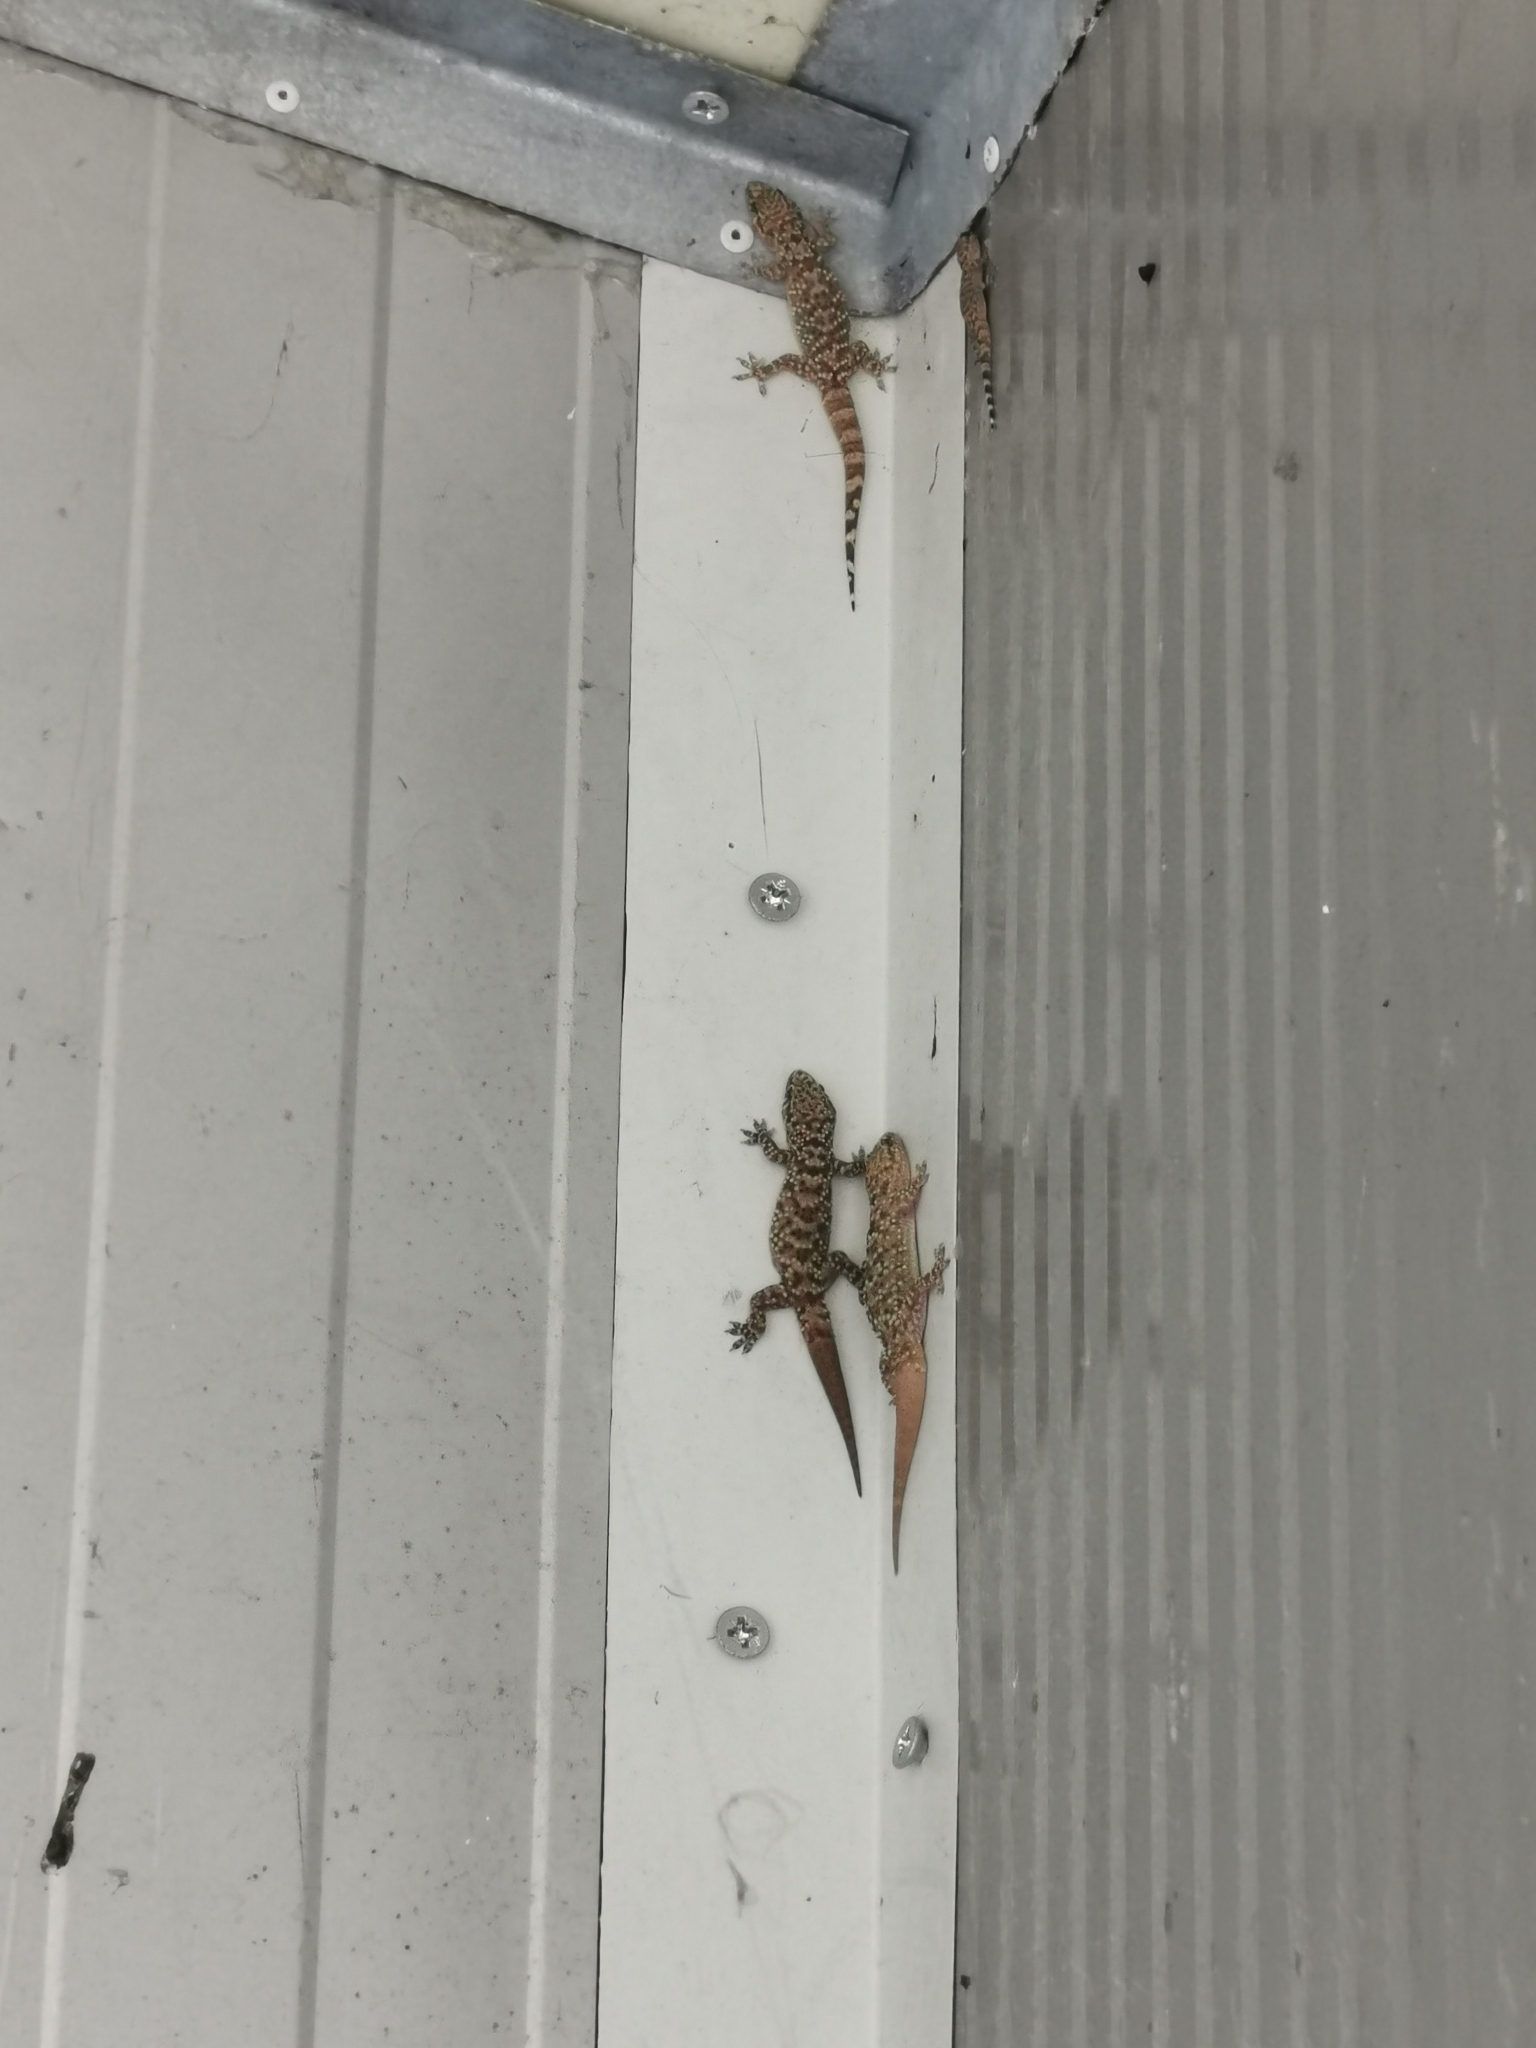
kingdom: Animalia
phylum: Chordata
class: Squamata
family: Gekkonidae
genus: Hemidactylus
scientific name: Hemidactylus turcicus
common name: Turkish gecko
